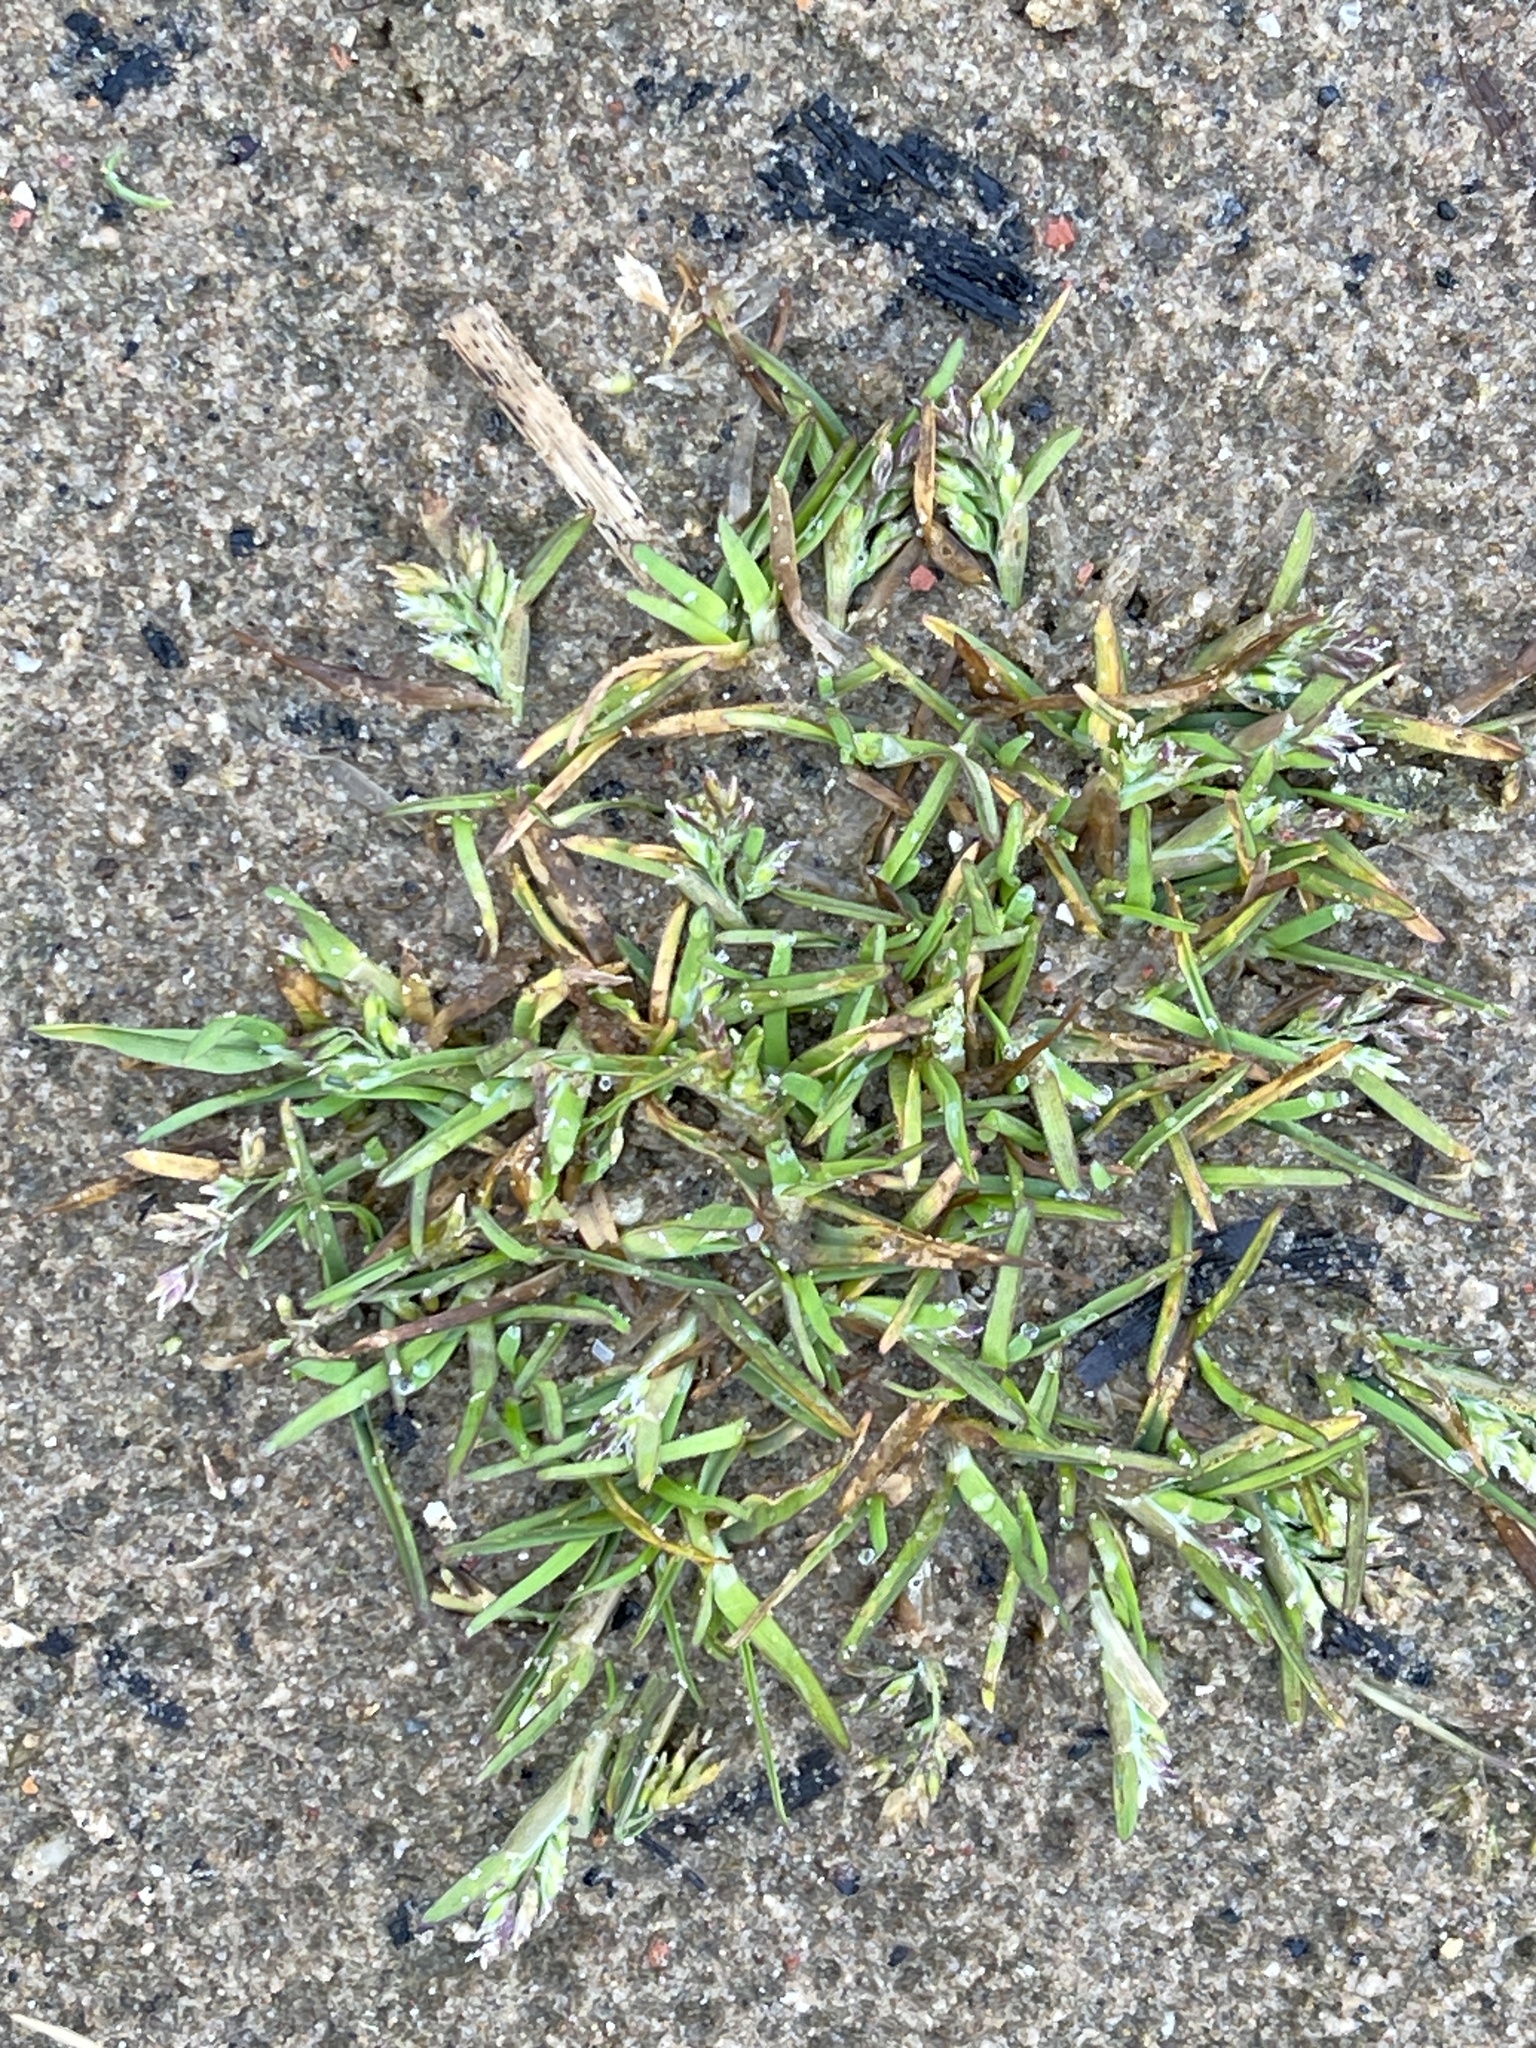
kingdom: Plantae
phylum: Tracheophyta
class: Liliopsida
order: Poales
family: Poaceae
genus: Poa
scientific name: Poa annua
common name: Annual bluegrass
